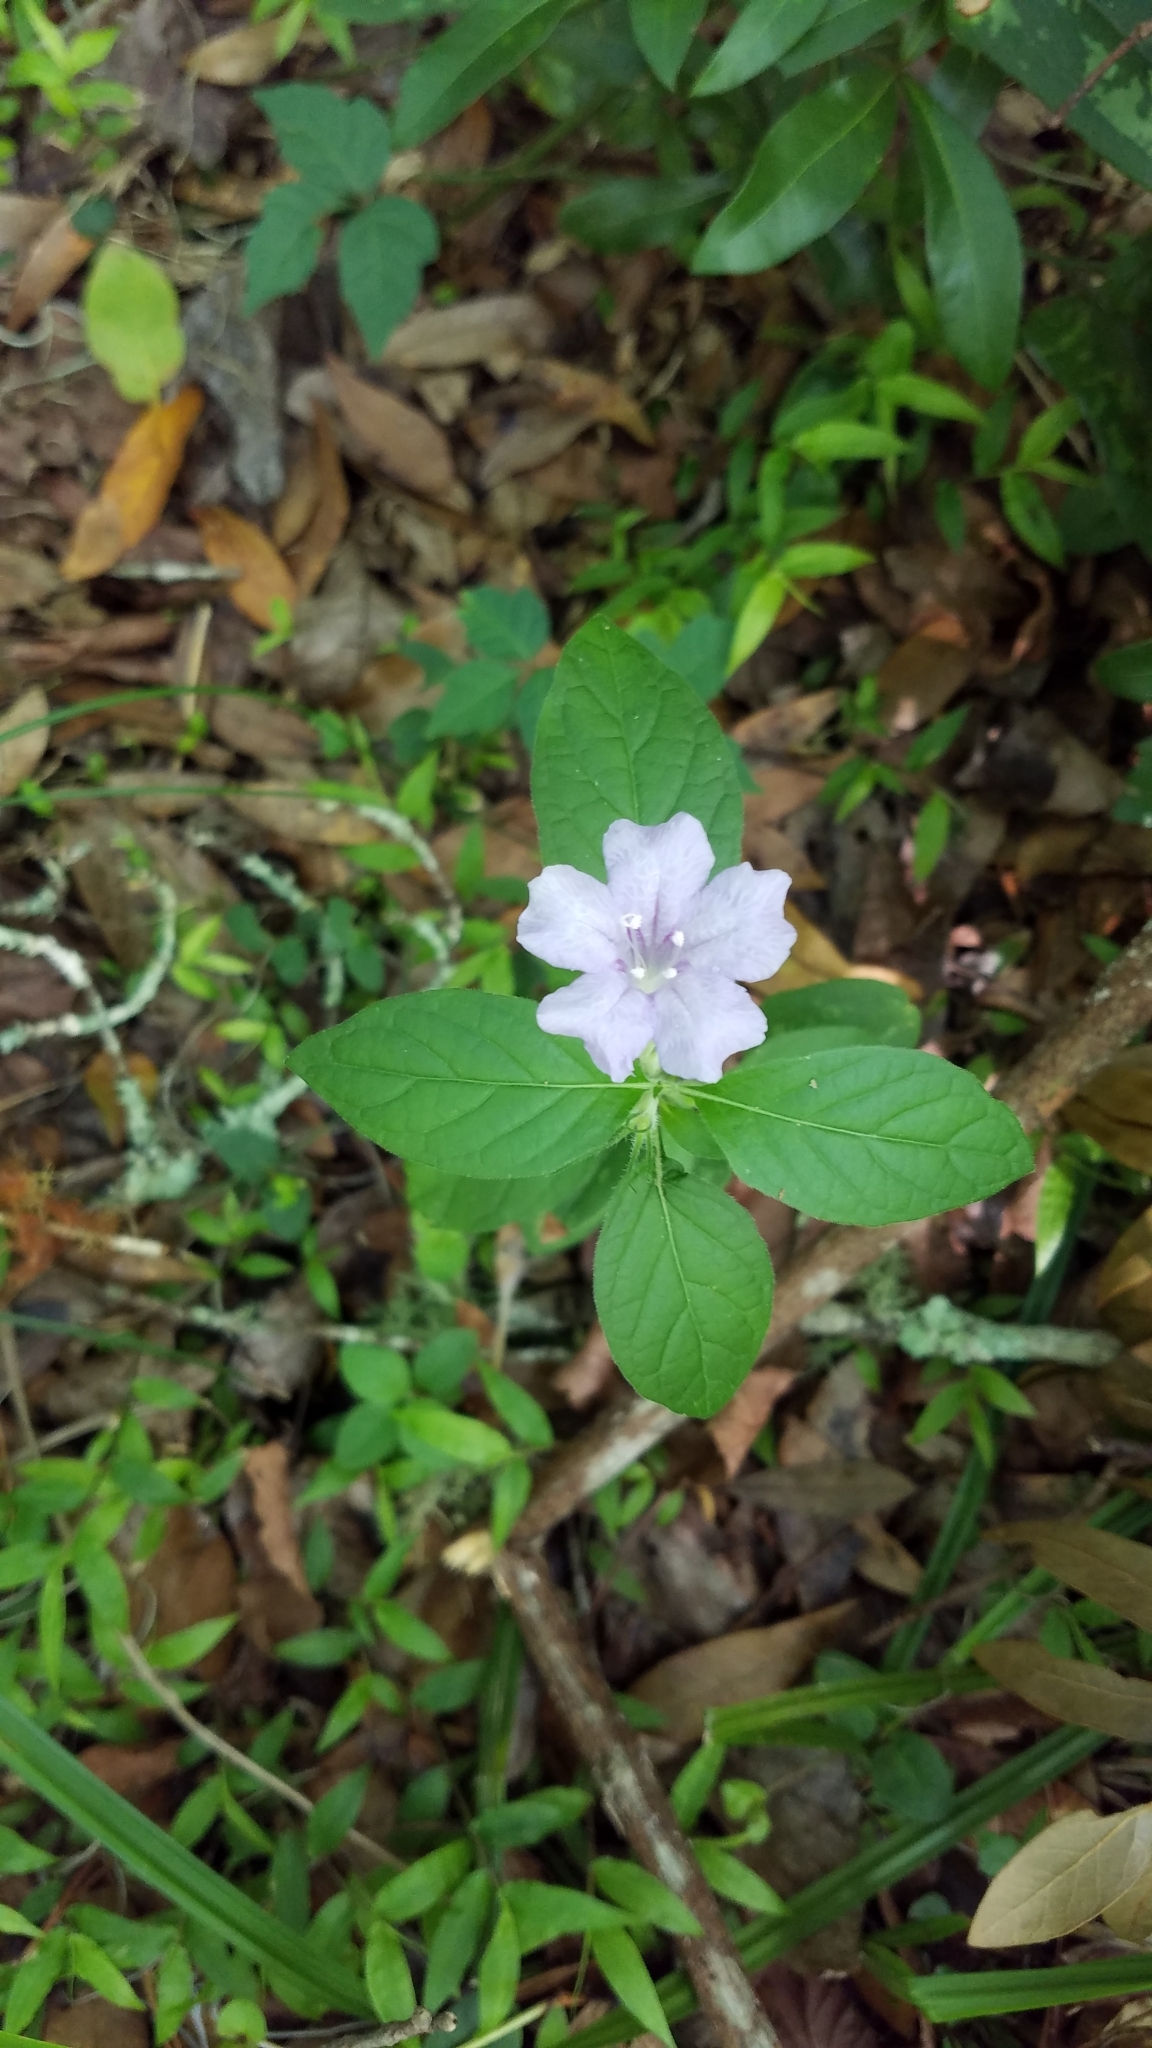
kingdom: Plantae
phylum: Tracheophyta
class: Magnoliopsida
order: Lamiales
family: Acanthaceae
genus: Ruellia
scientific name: Ruellia caroliniensis
